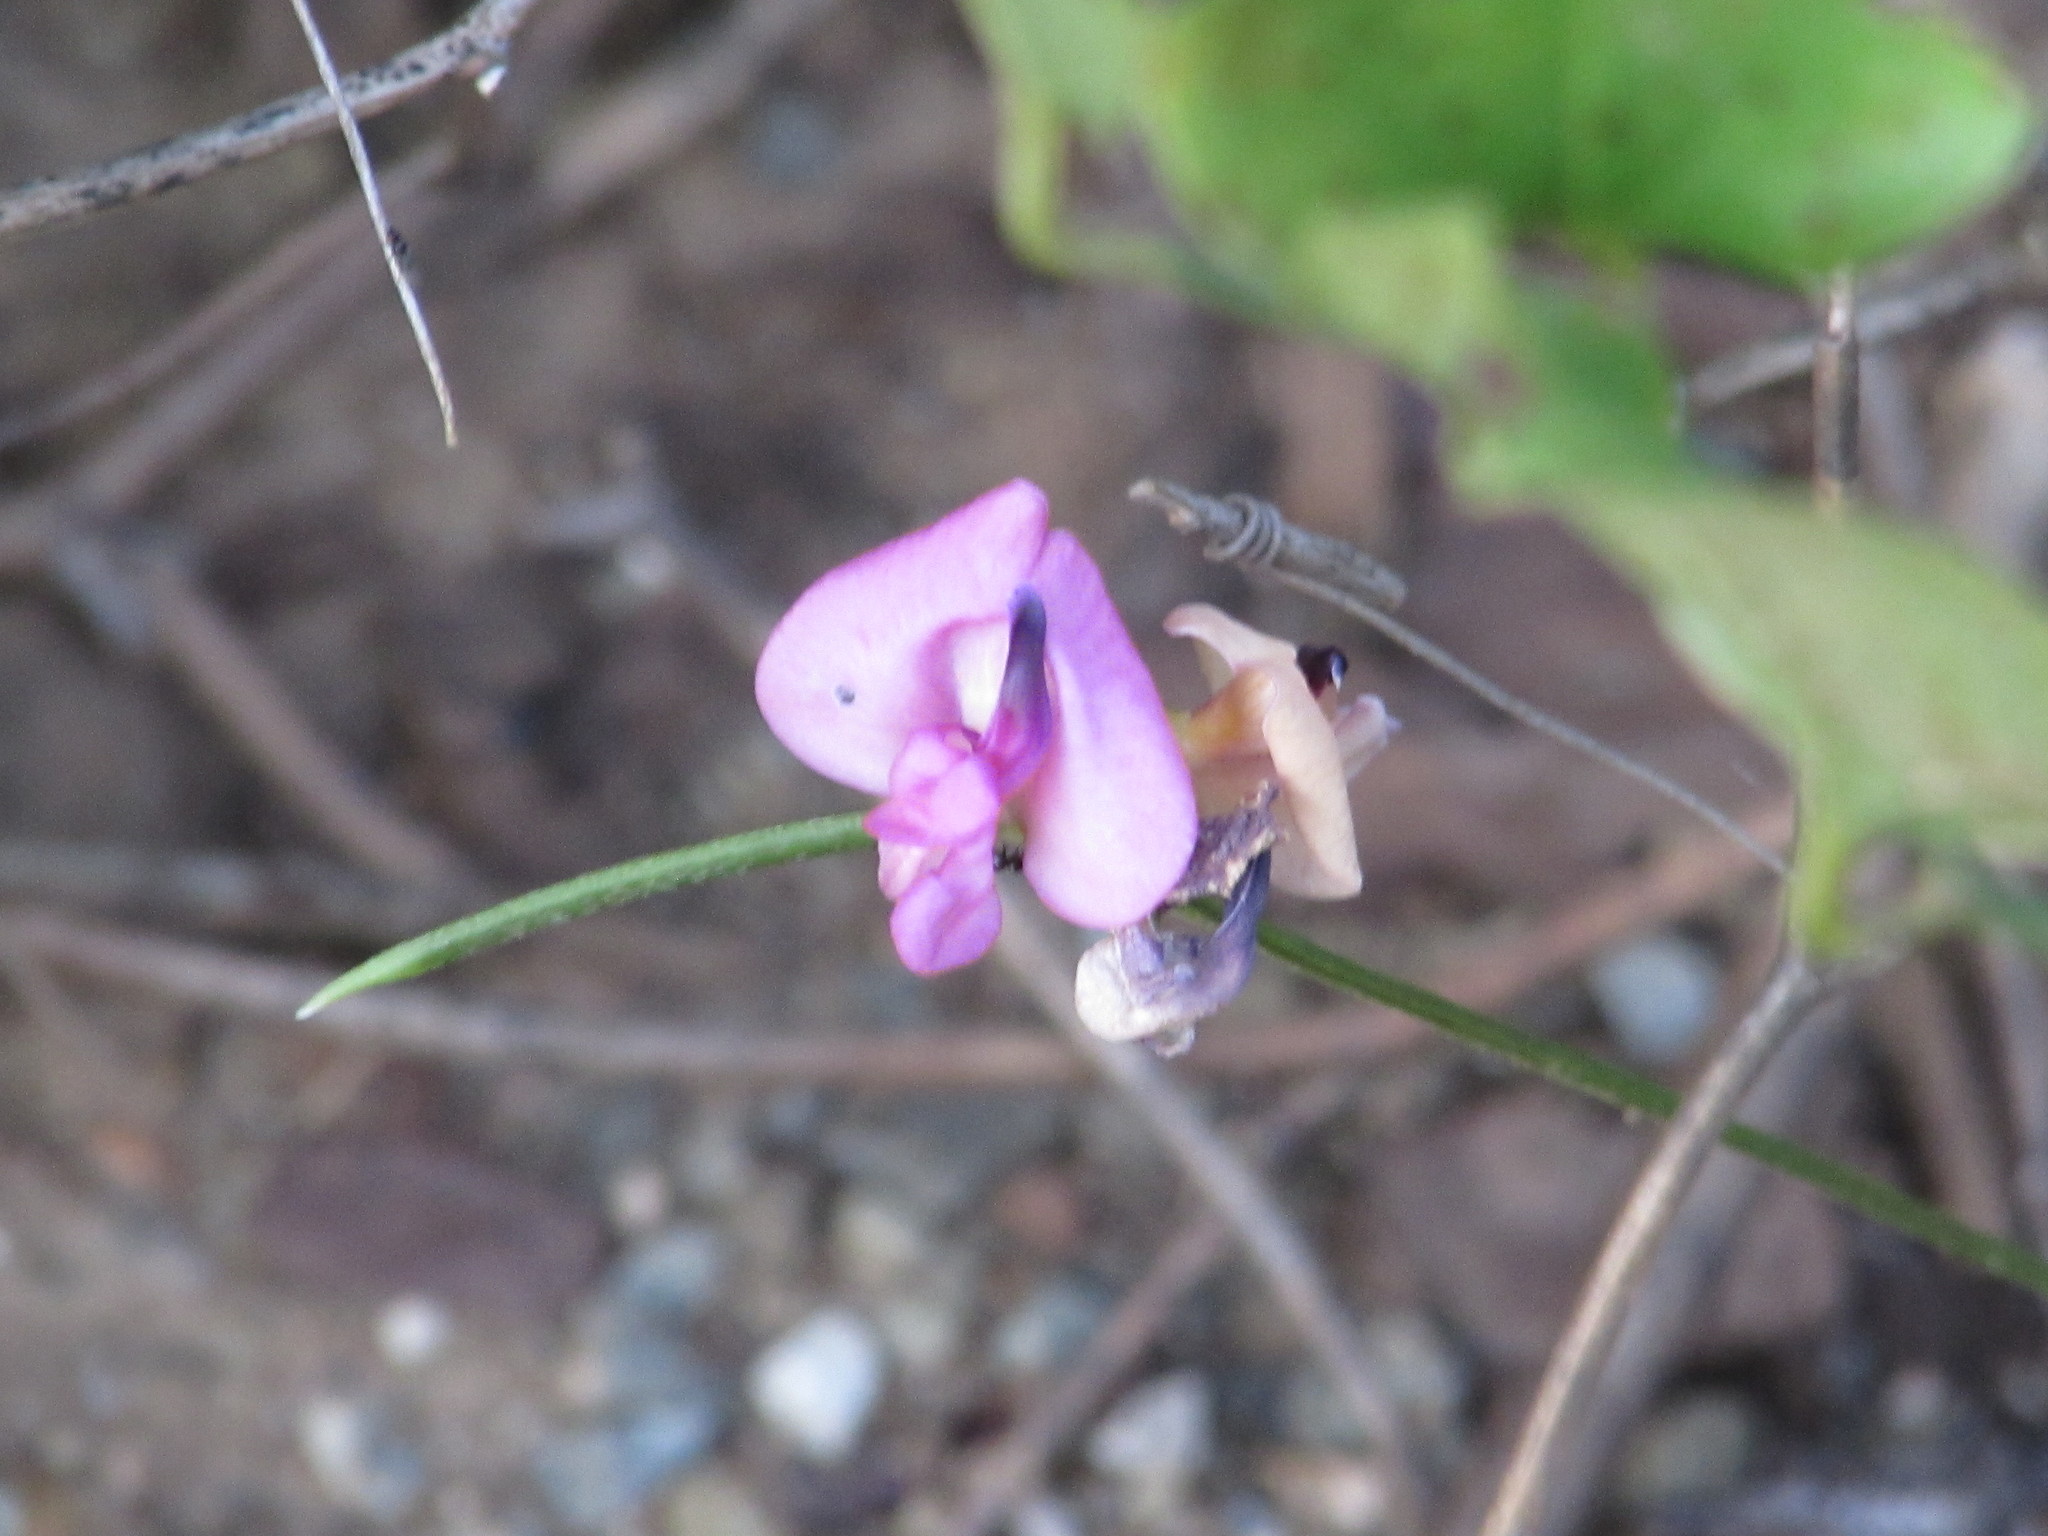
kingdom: Plantae
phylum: Tracheophyta
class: Magnoliopsida
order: Fabales
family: Fabaceae
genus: Strophostyles
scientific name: Strophostyles umbellata
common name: Perennial wild bean
